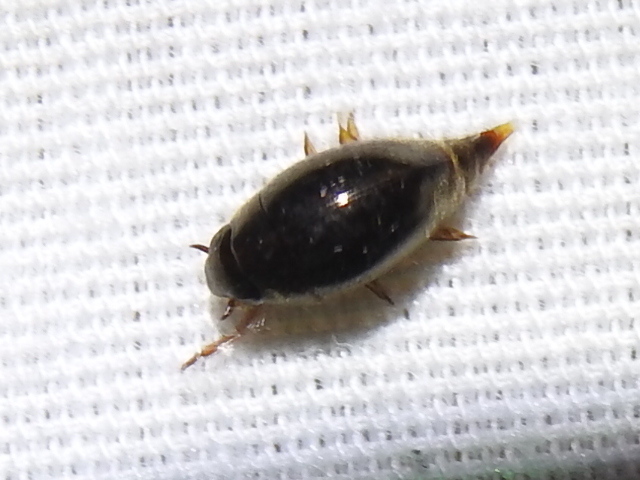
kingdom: Animalia
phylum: Arthropoda
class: Insecta
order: Coleoptera
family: Gyrinidae
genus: Gyretes
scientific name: Gyretes
